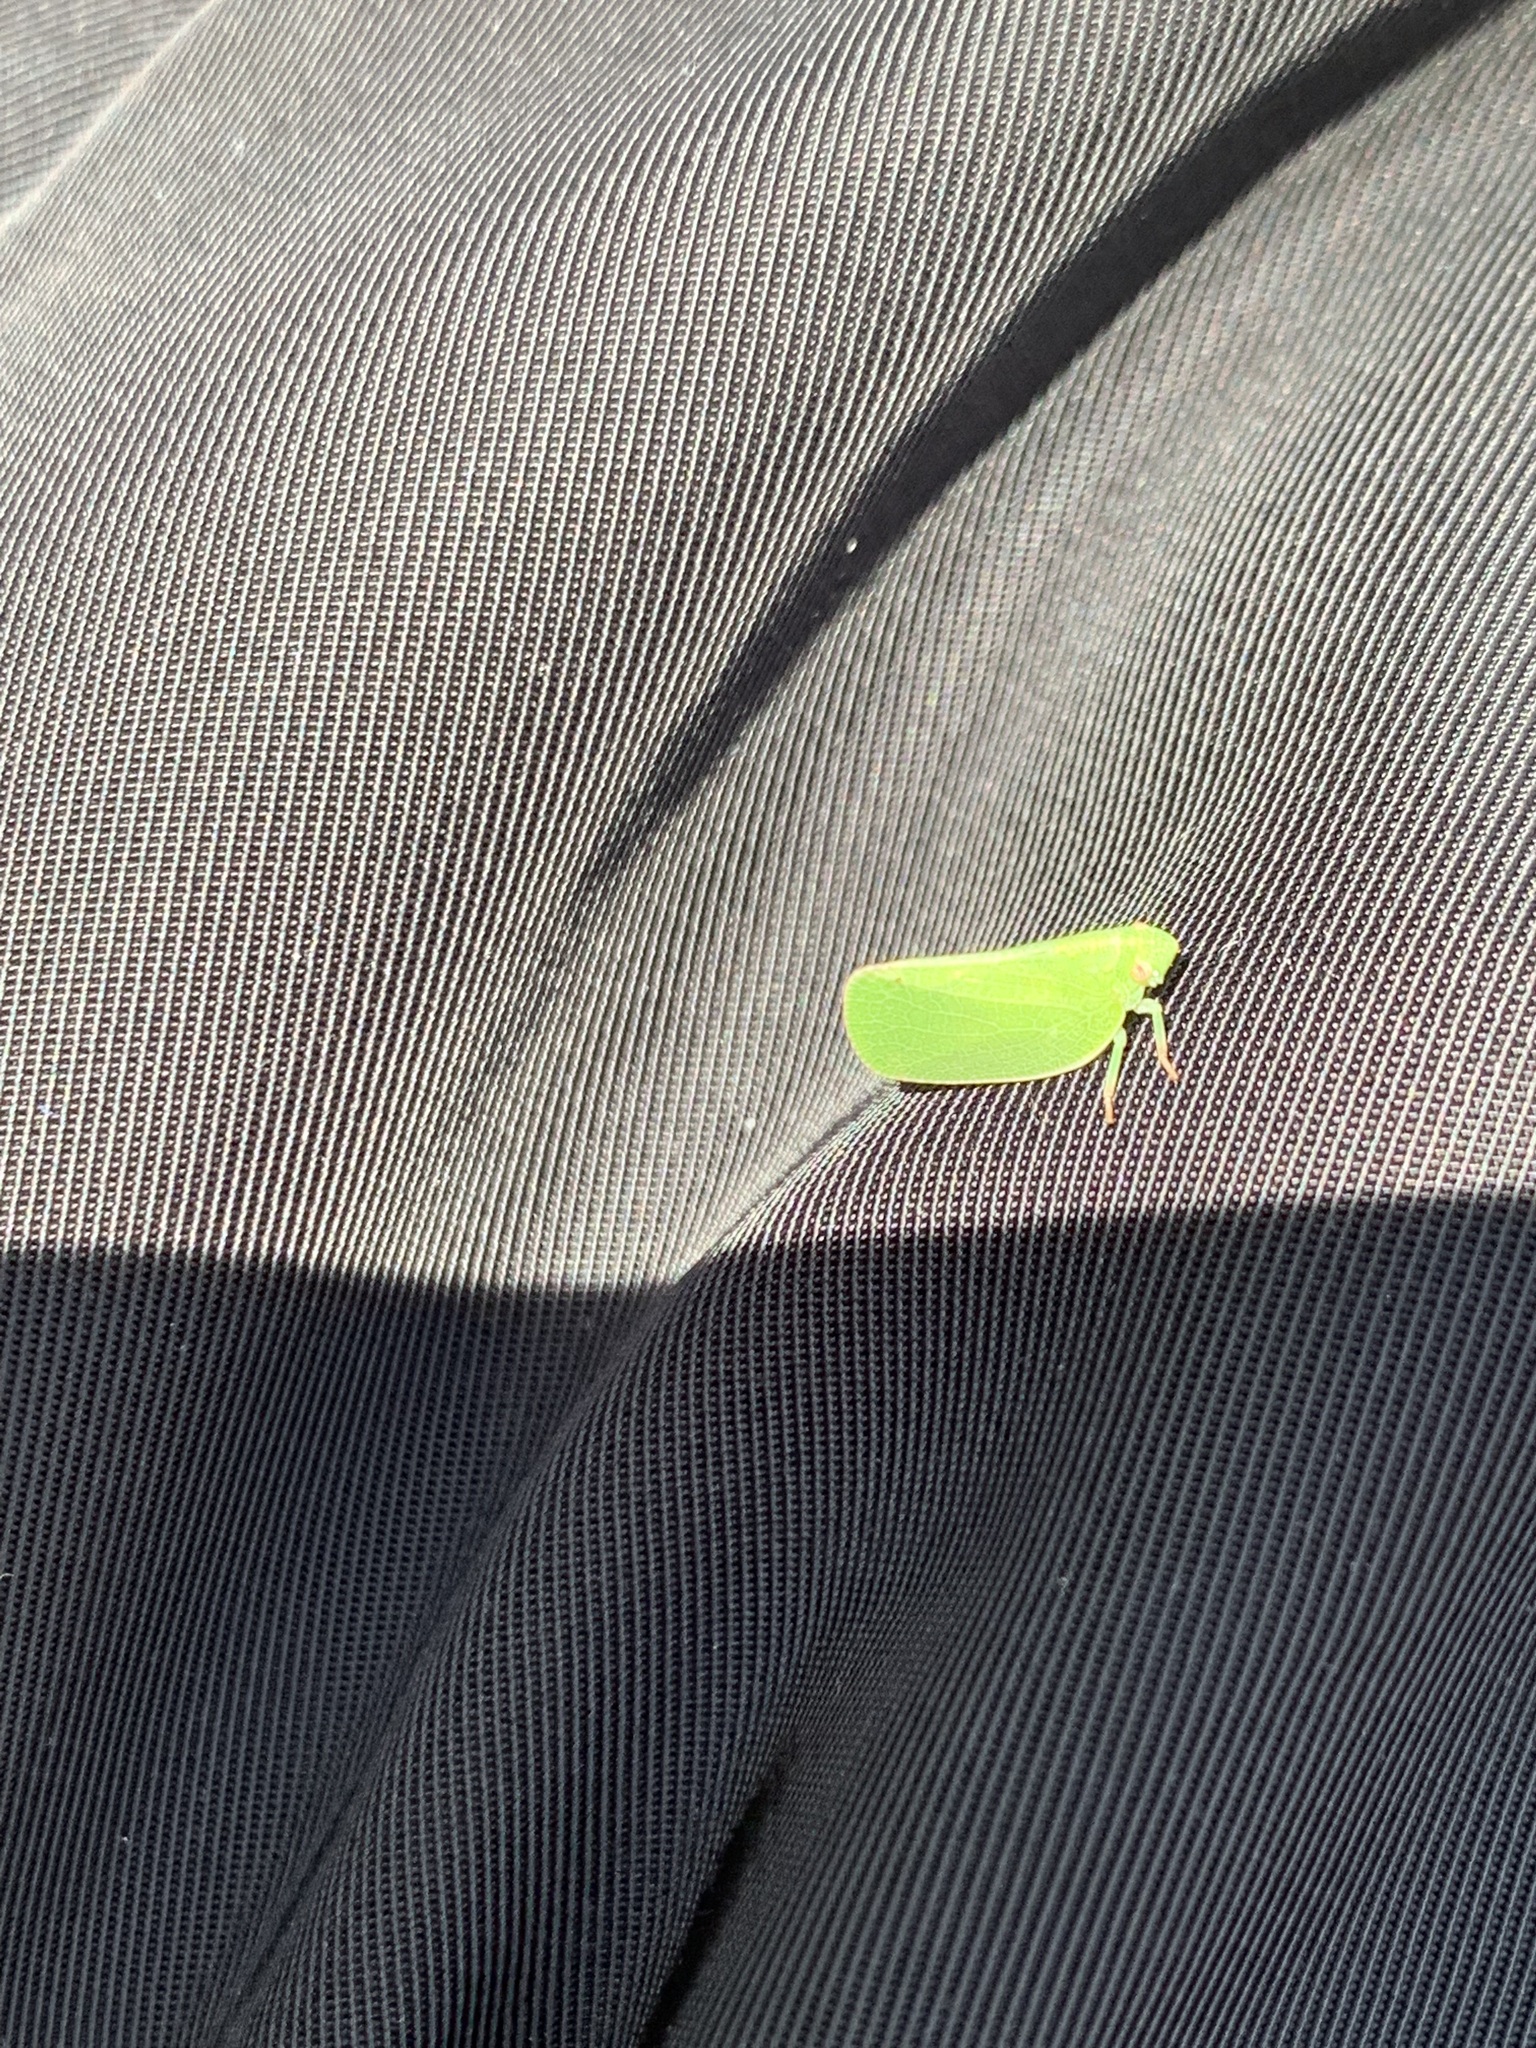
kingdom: Animalia
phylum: Arthropoda
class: Insecta
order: Hemiptera
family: Acanaloniidae
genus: Acanalonia
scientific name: Acanalonia conica
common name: Green cone-headed planthopper
